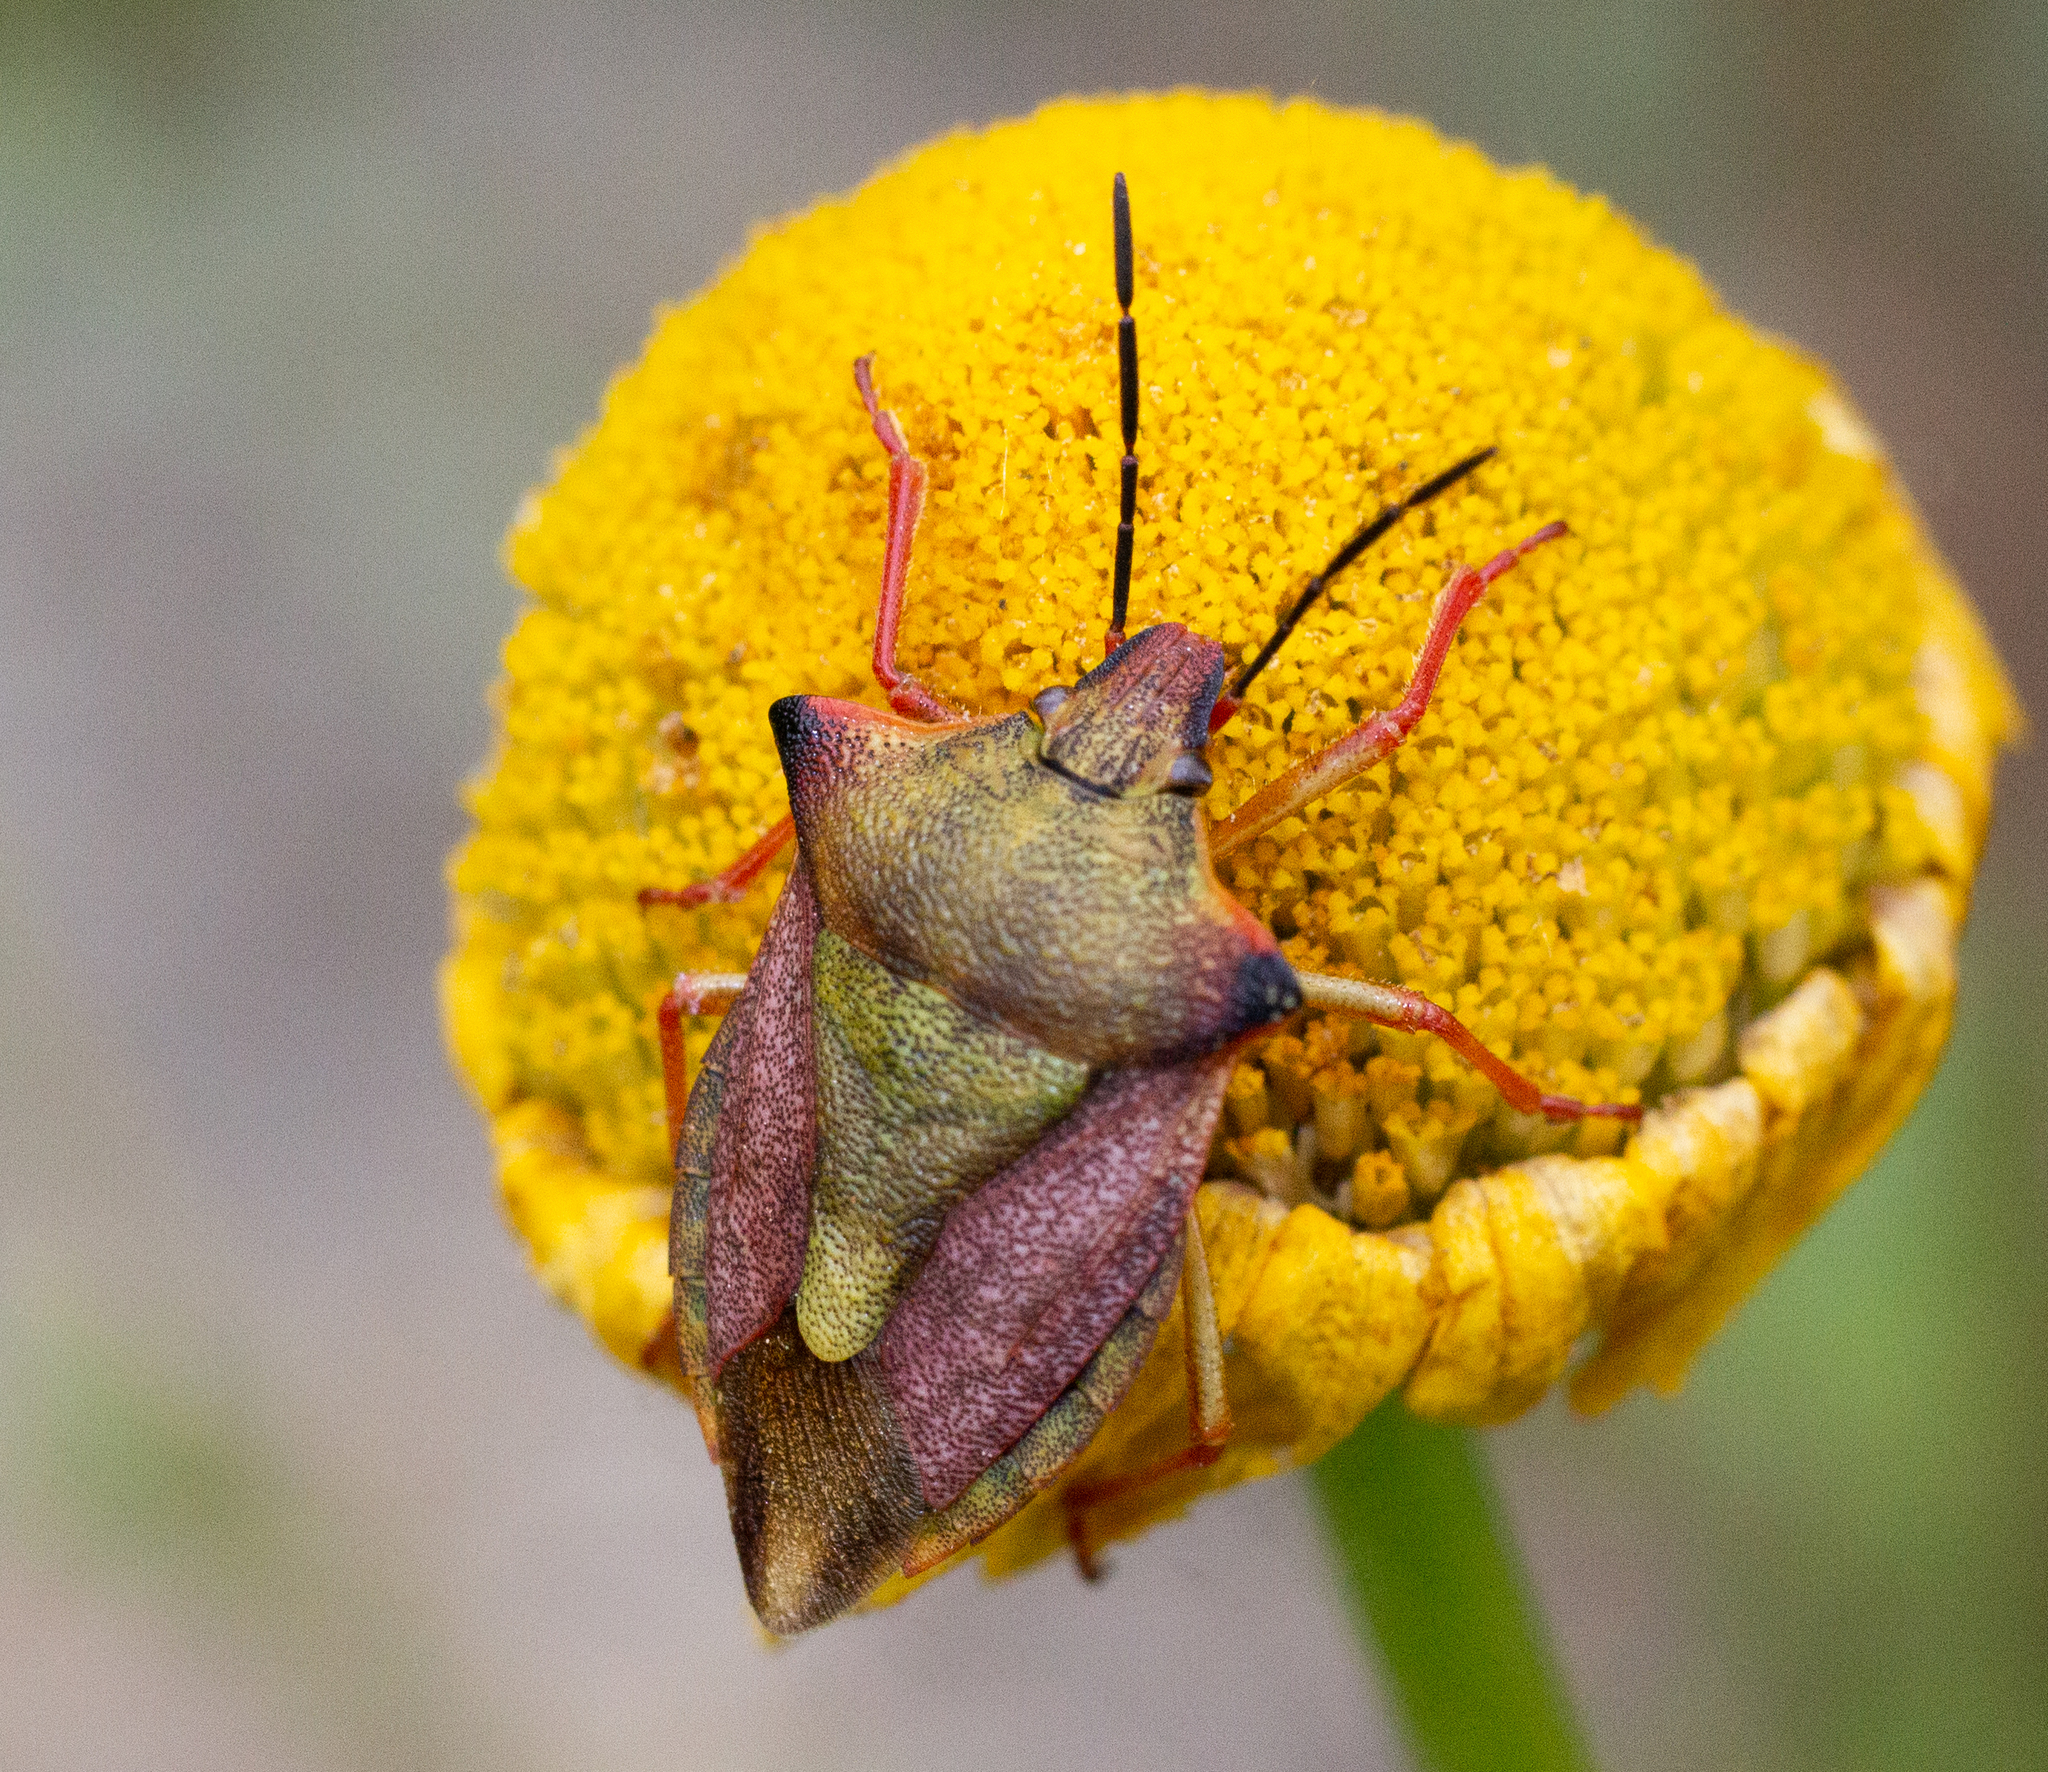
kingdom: Animalia
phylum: Arthropoda
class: Insecta
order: Hemiptera
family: Pentatomidae
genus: Carpocoris
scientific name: Carpocoris mediterraneus
